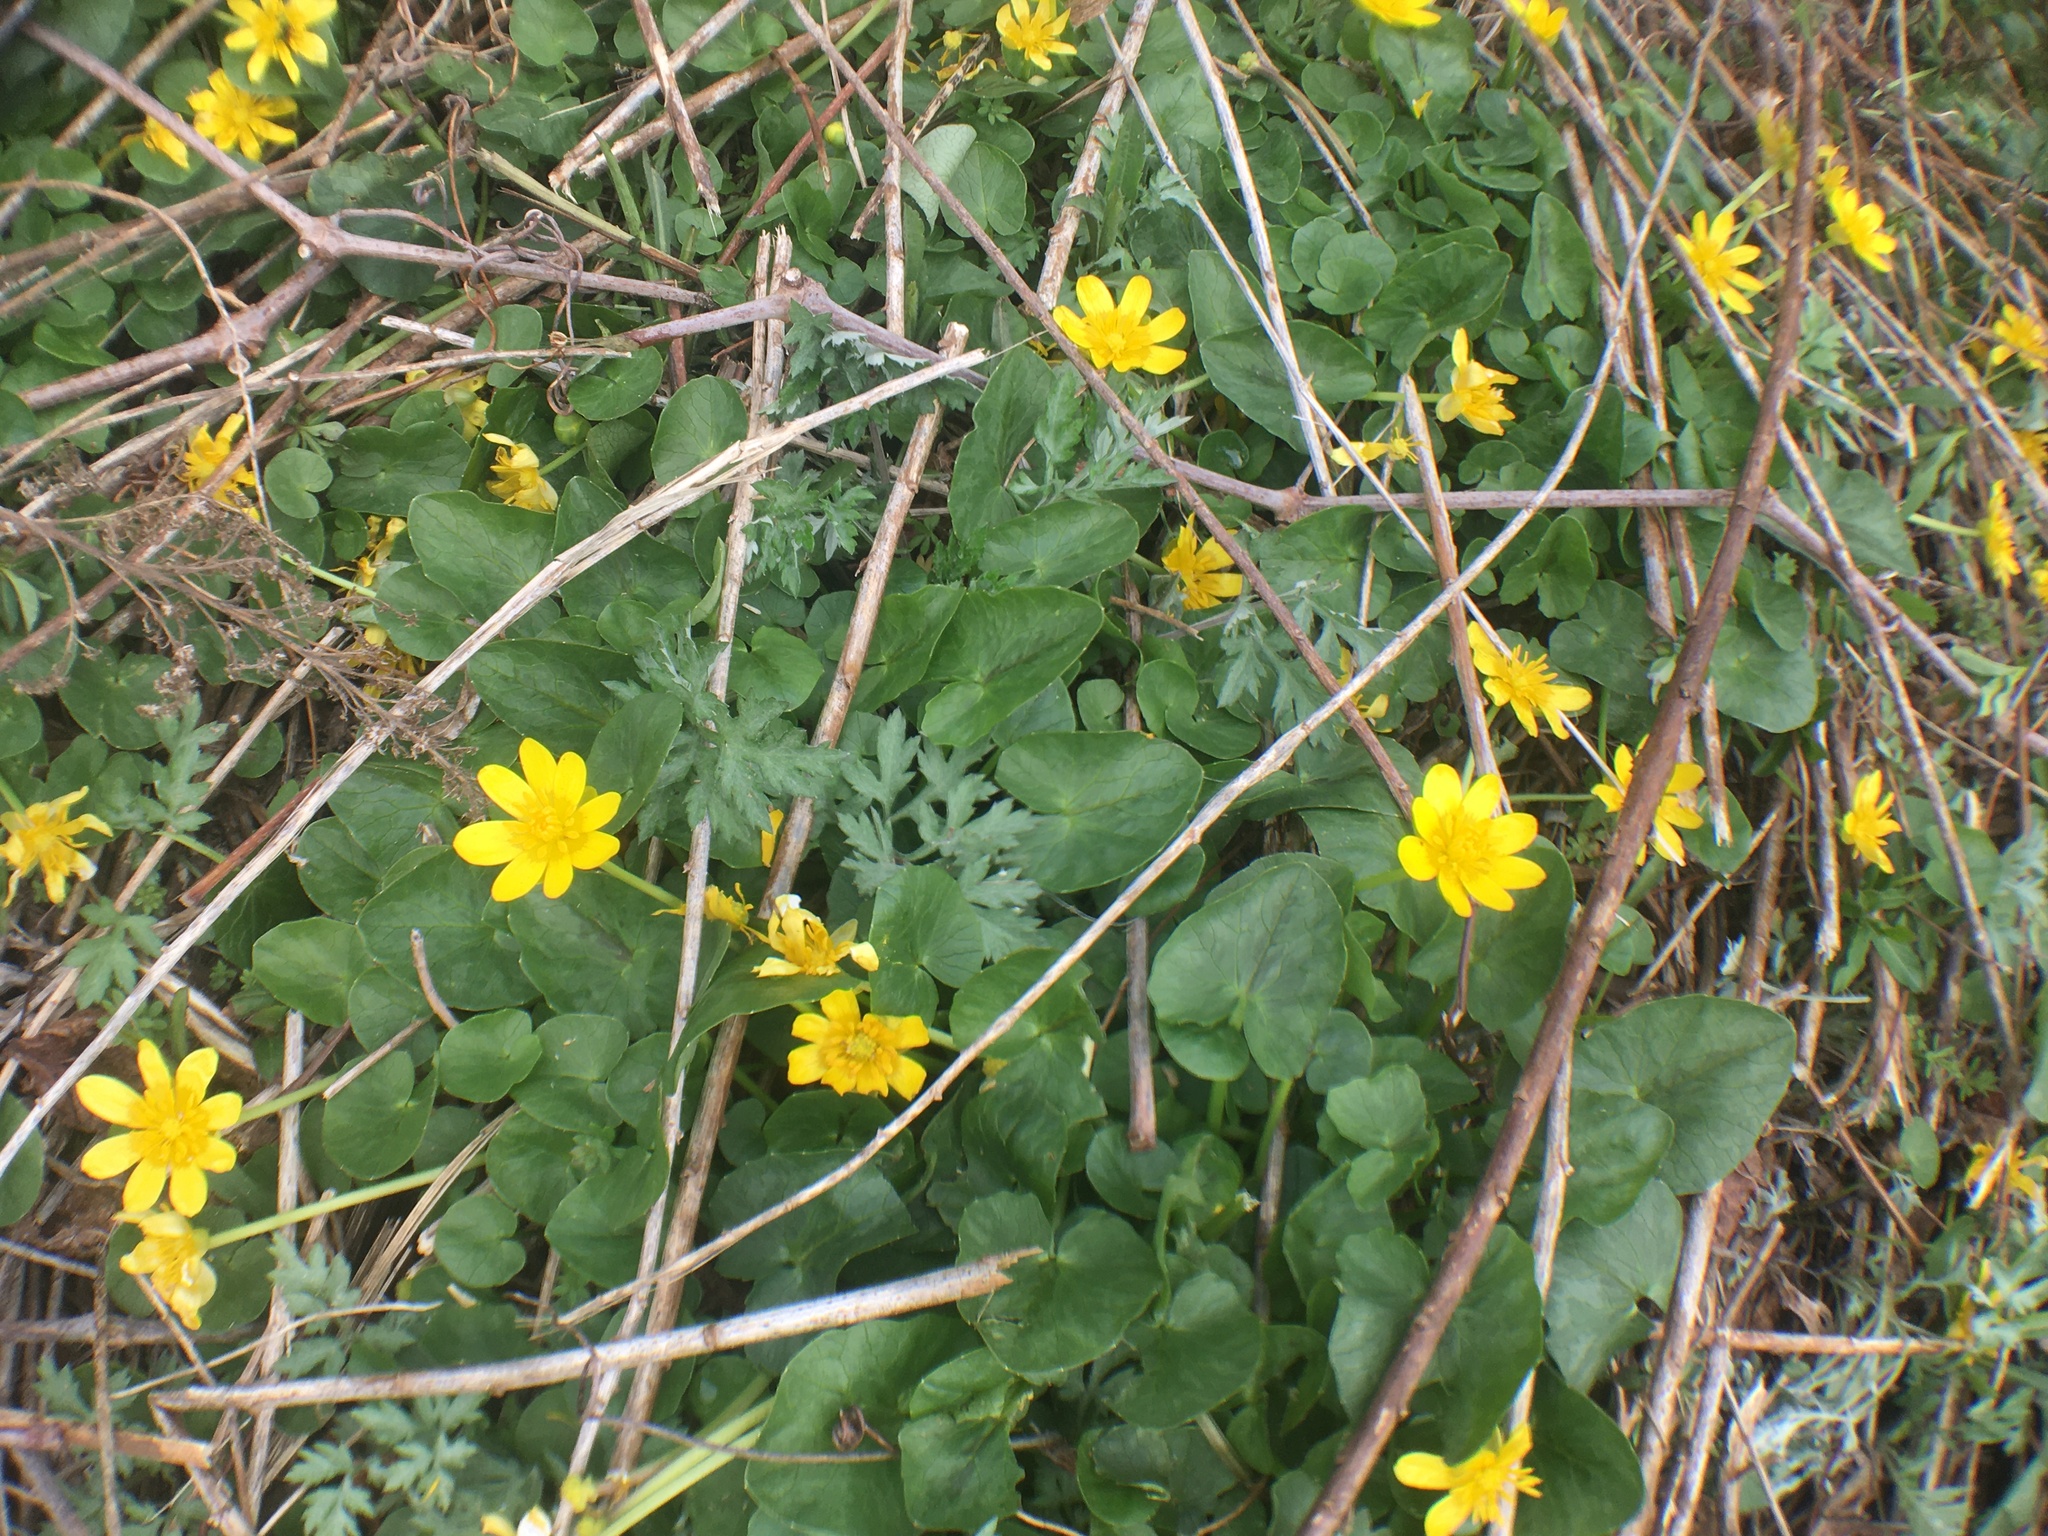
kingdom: Plantae
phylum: Tracheophyta
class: Magnoliopsida
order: Ranunculales
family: Ranunculaceae
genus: Ficaria
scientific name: Ficaria verna
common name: Lesser celandine
